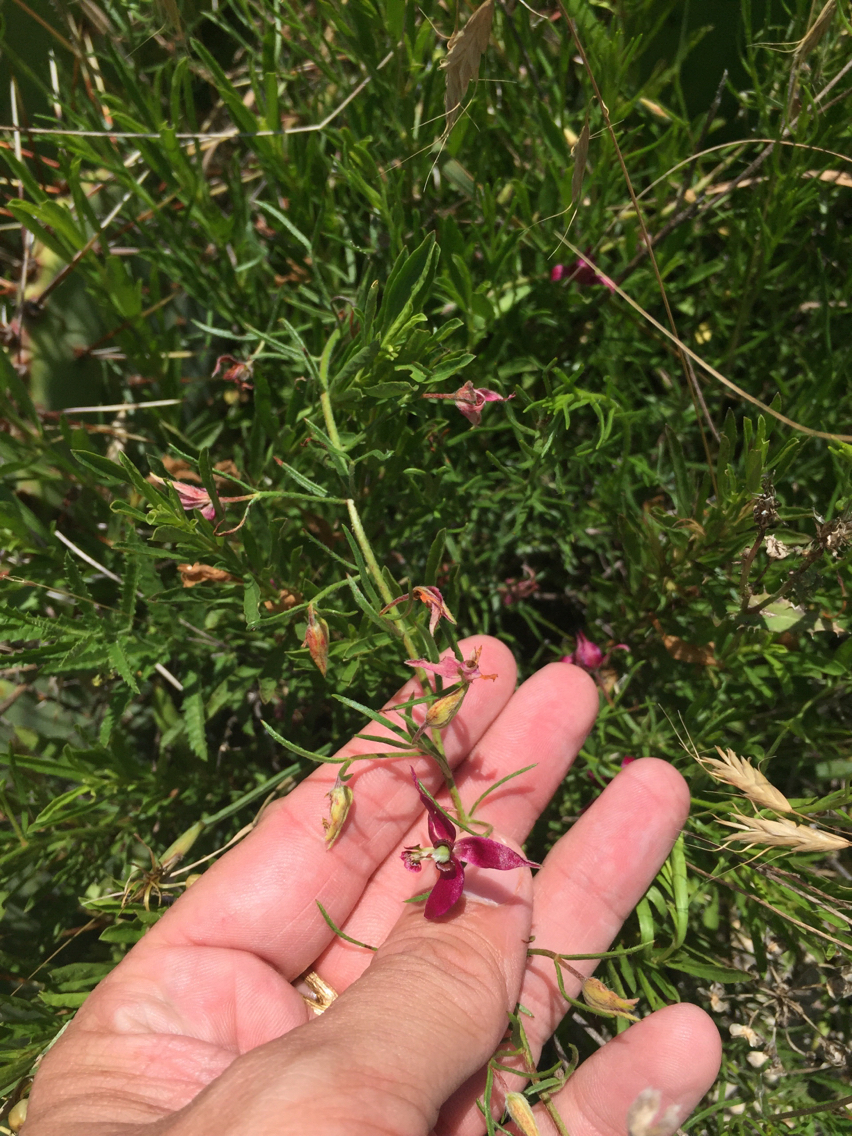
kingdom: Plantae
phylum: Tracheophyta
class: Magnoliopsida
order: Zygophyllales
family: Krameriaceae
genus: Krameria
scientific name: Krameria lanceolata
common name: Ratany
